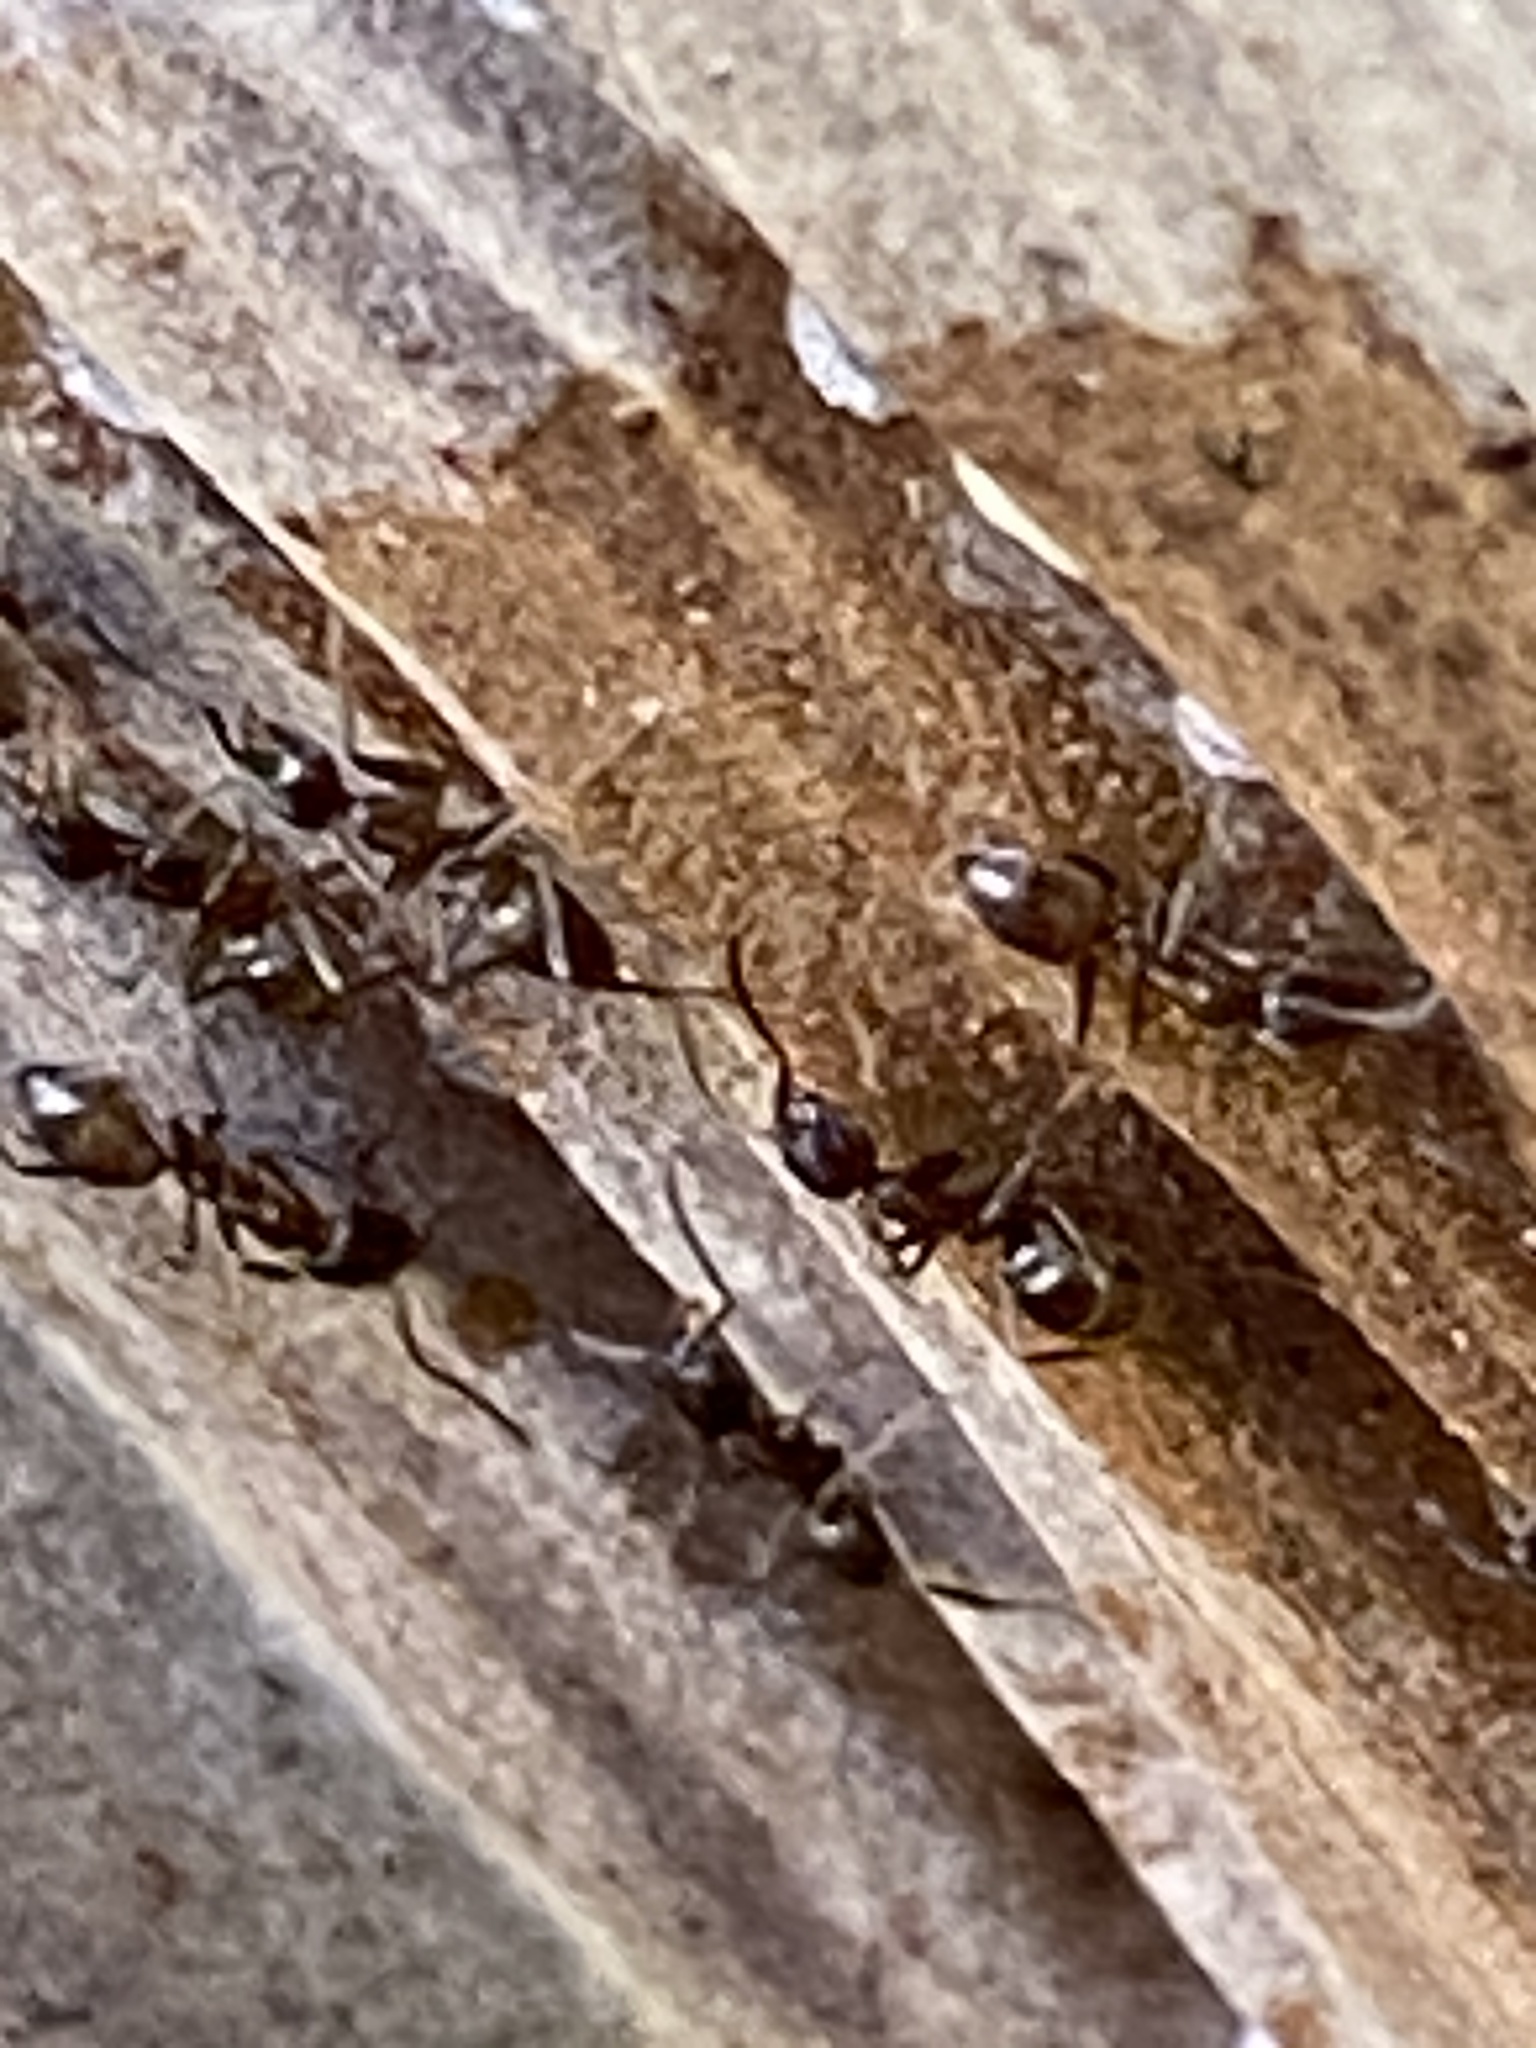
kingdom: Animalia
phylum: Arthropoda
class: Insecta
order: Hymenoptera
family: Formicidae
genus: Linepithema
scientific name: Linepithema humile
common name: Argentine ant
